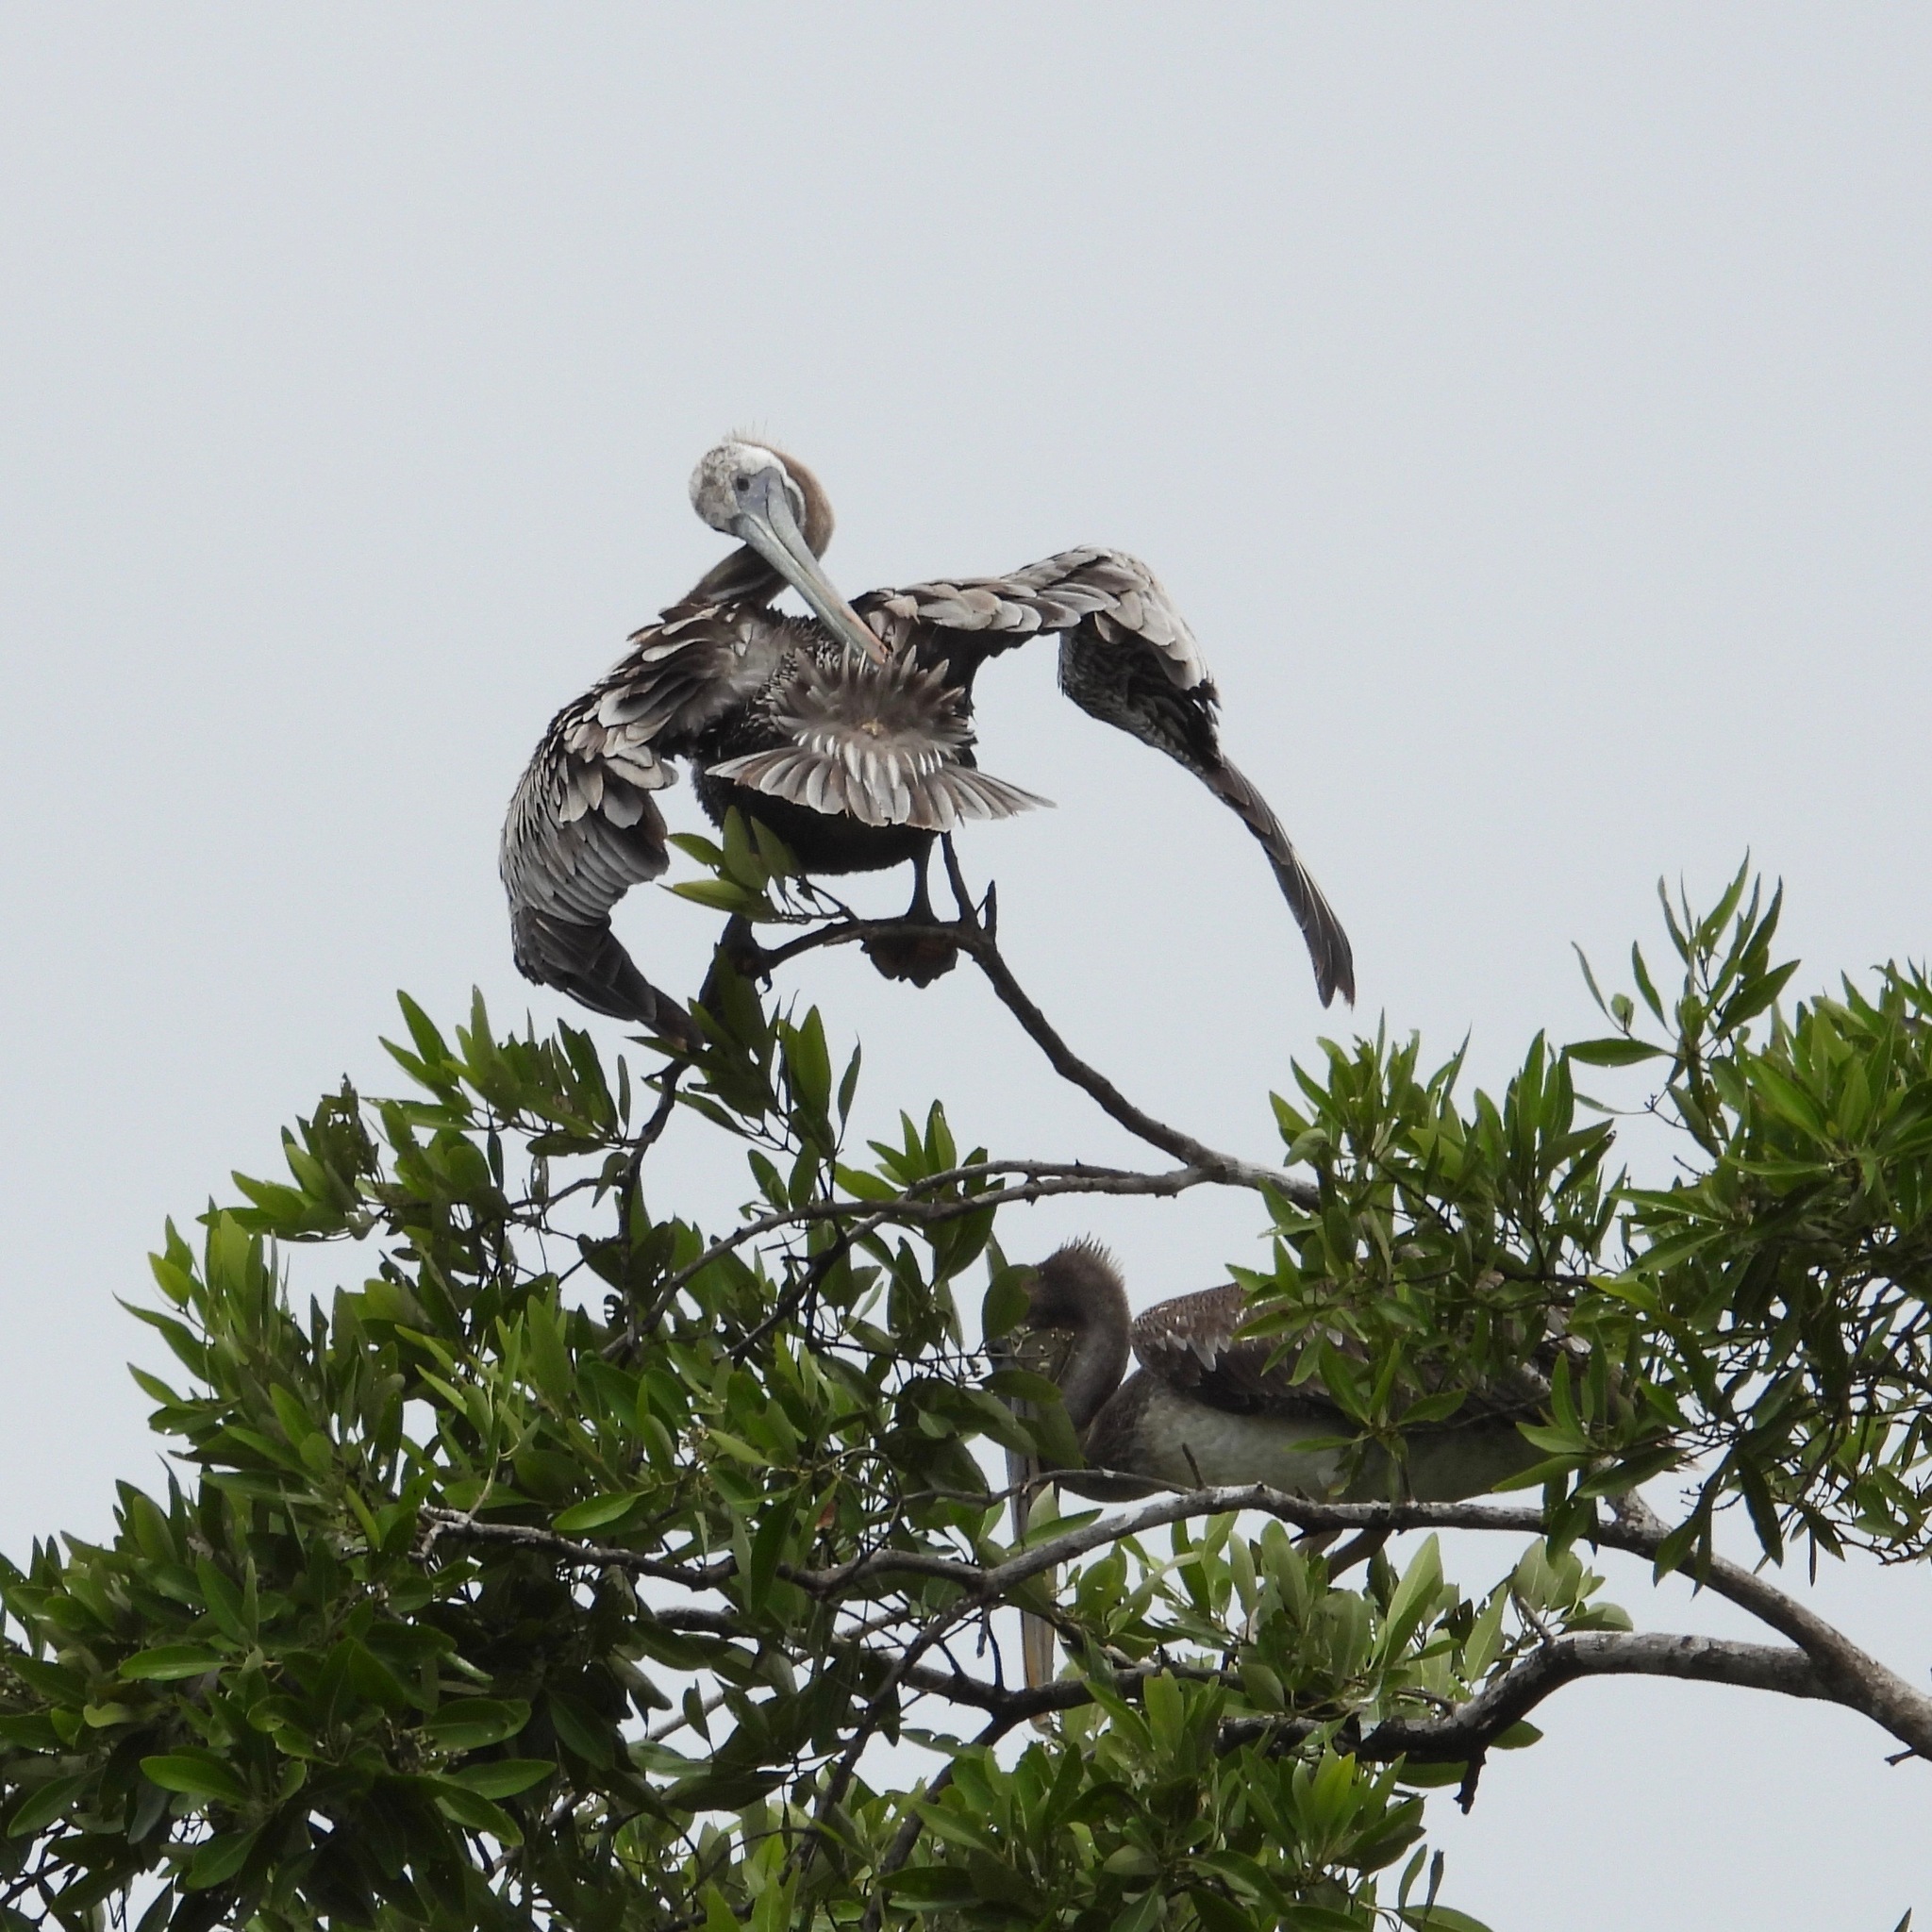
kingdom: Animalia
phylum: Chordata
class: Aves
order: Pelecaniformes
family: Pelecanidae
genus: Pelecanus
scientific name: Pelecanus occidentalis
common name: Brown pelican
